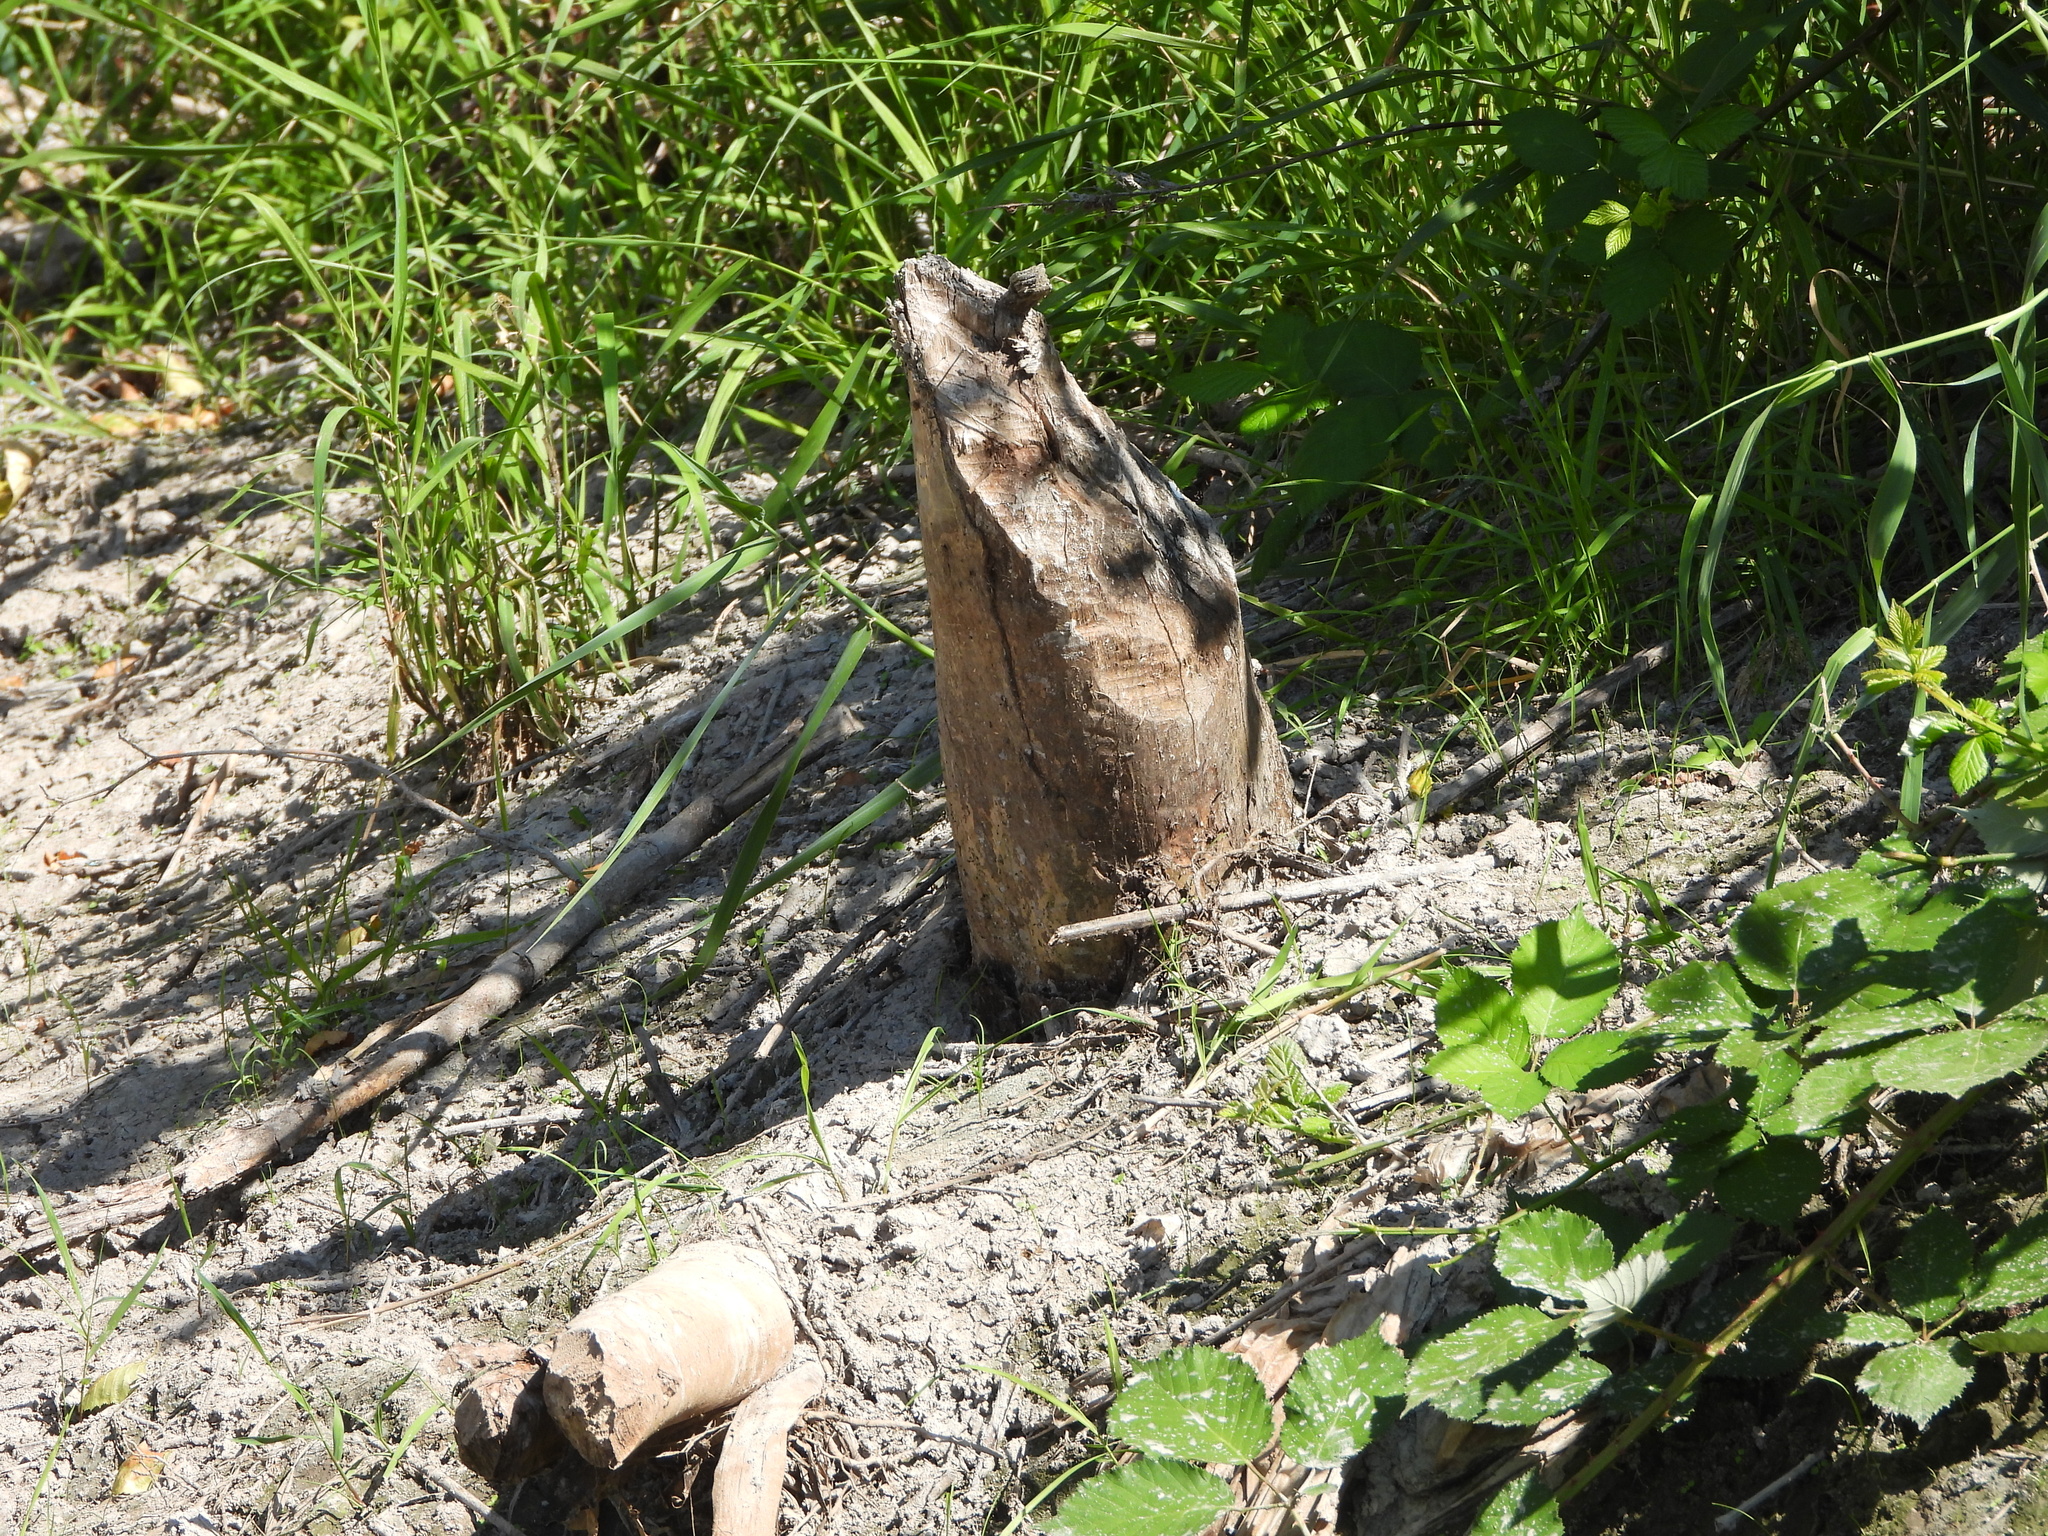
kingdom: Animalia
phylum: Chordata
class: Mammalia
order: Rodentia
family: Castoridae
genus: Castor
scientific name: Castor canadensis
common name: American beaver
